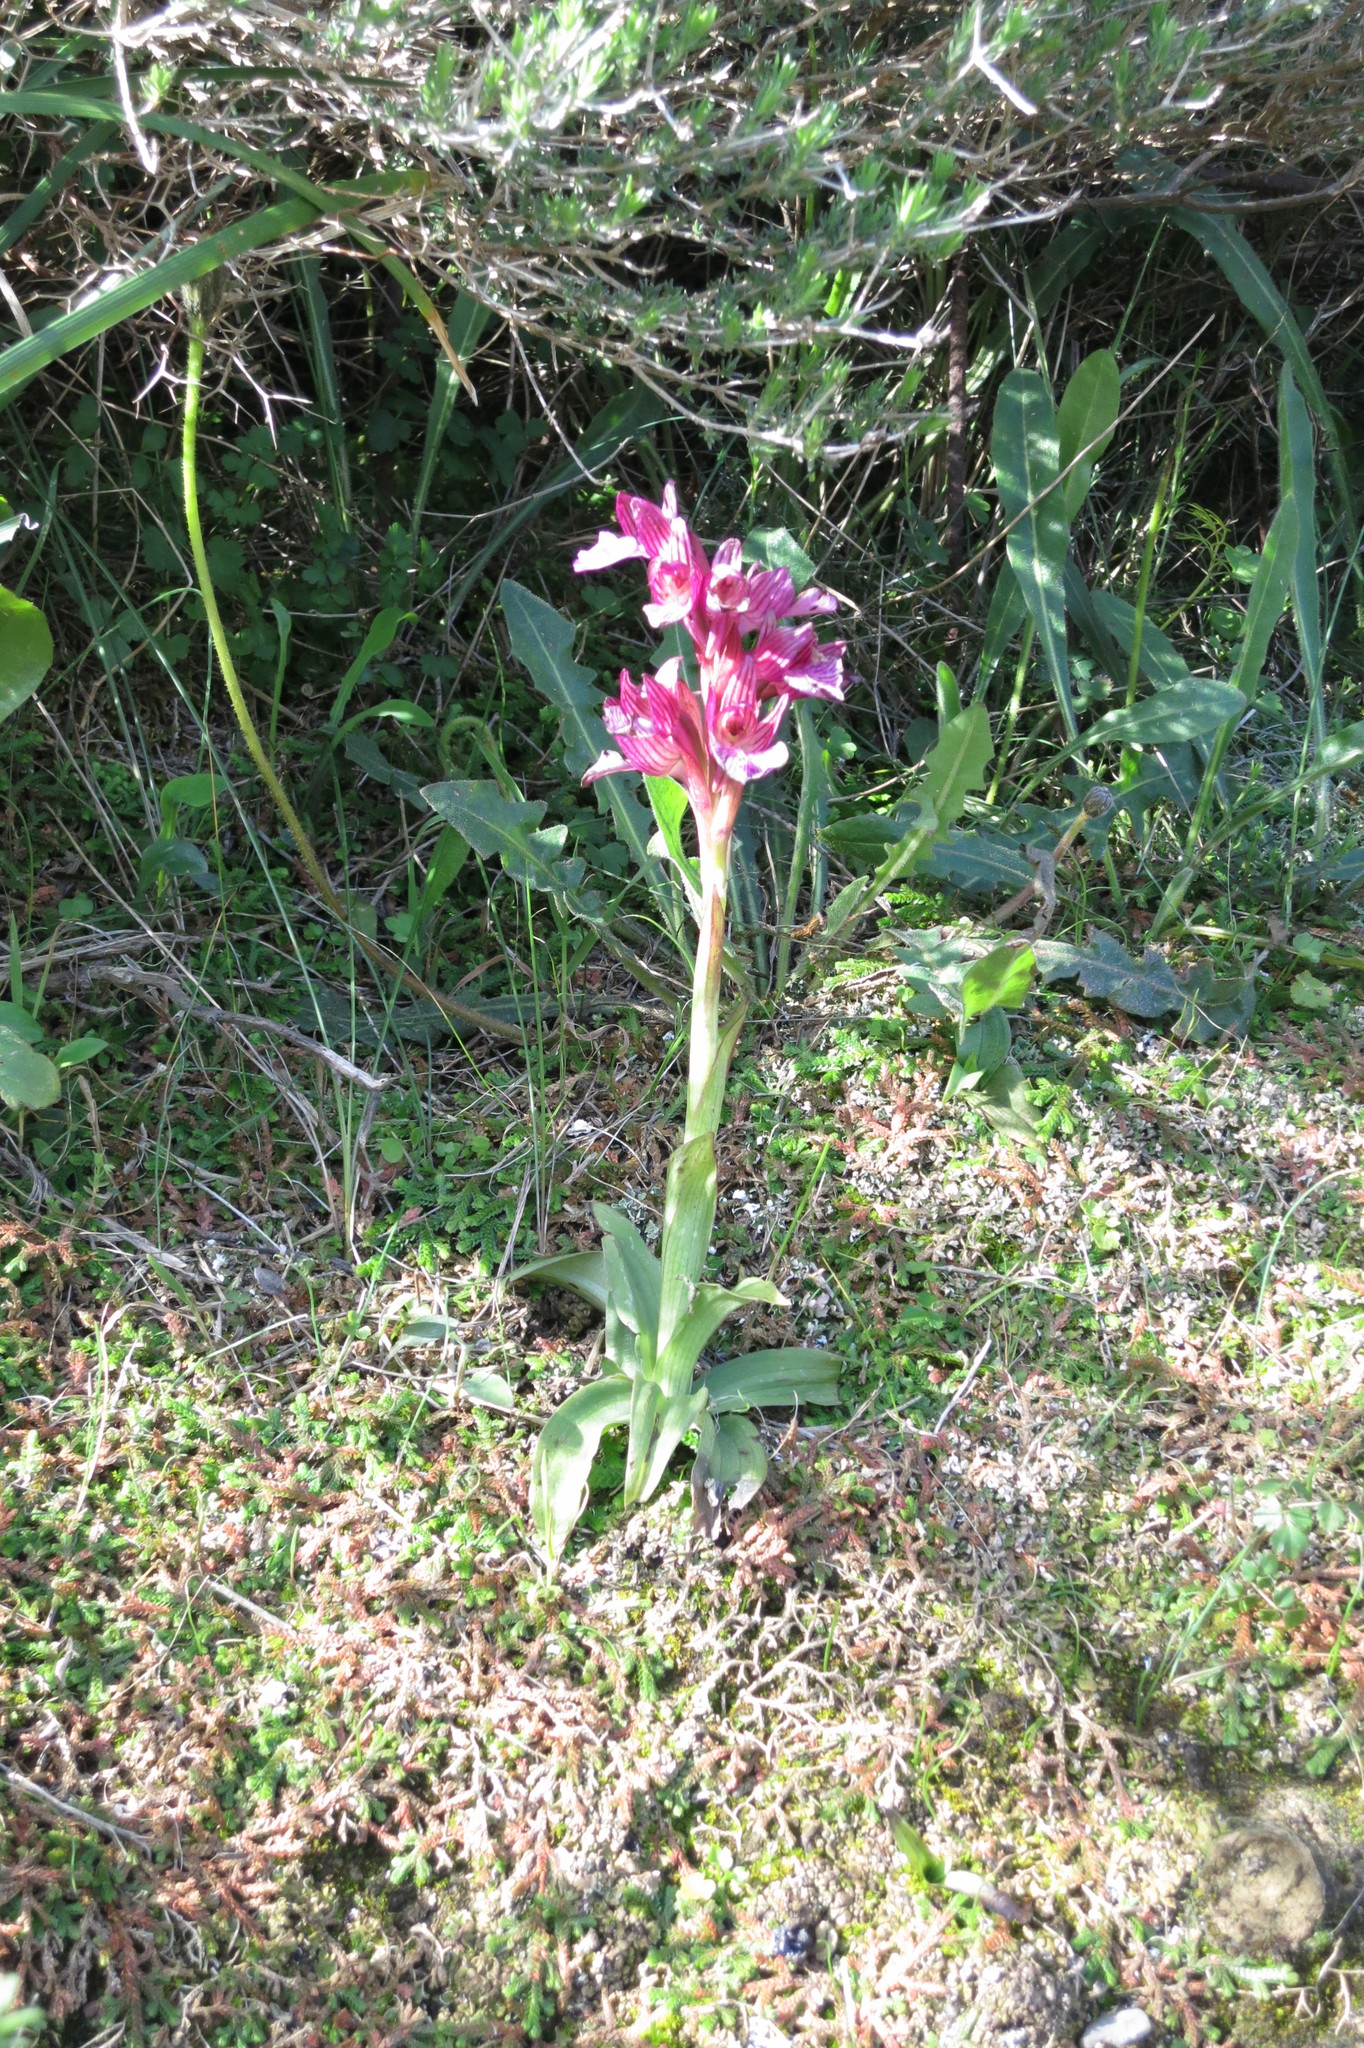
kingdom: Plantae
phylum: Tracheophyta
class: Liliopsida
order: Asparagales
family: Orchidaceae
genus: Anacamptis
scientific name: Anacamptis papilionacea
